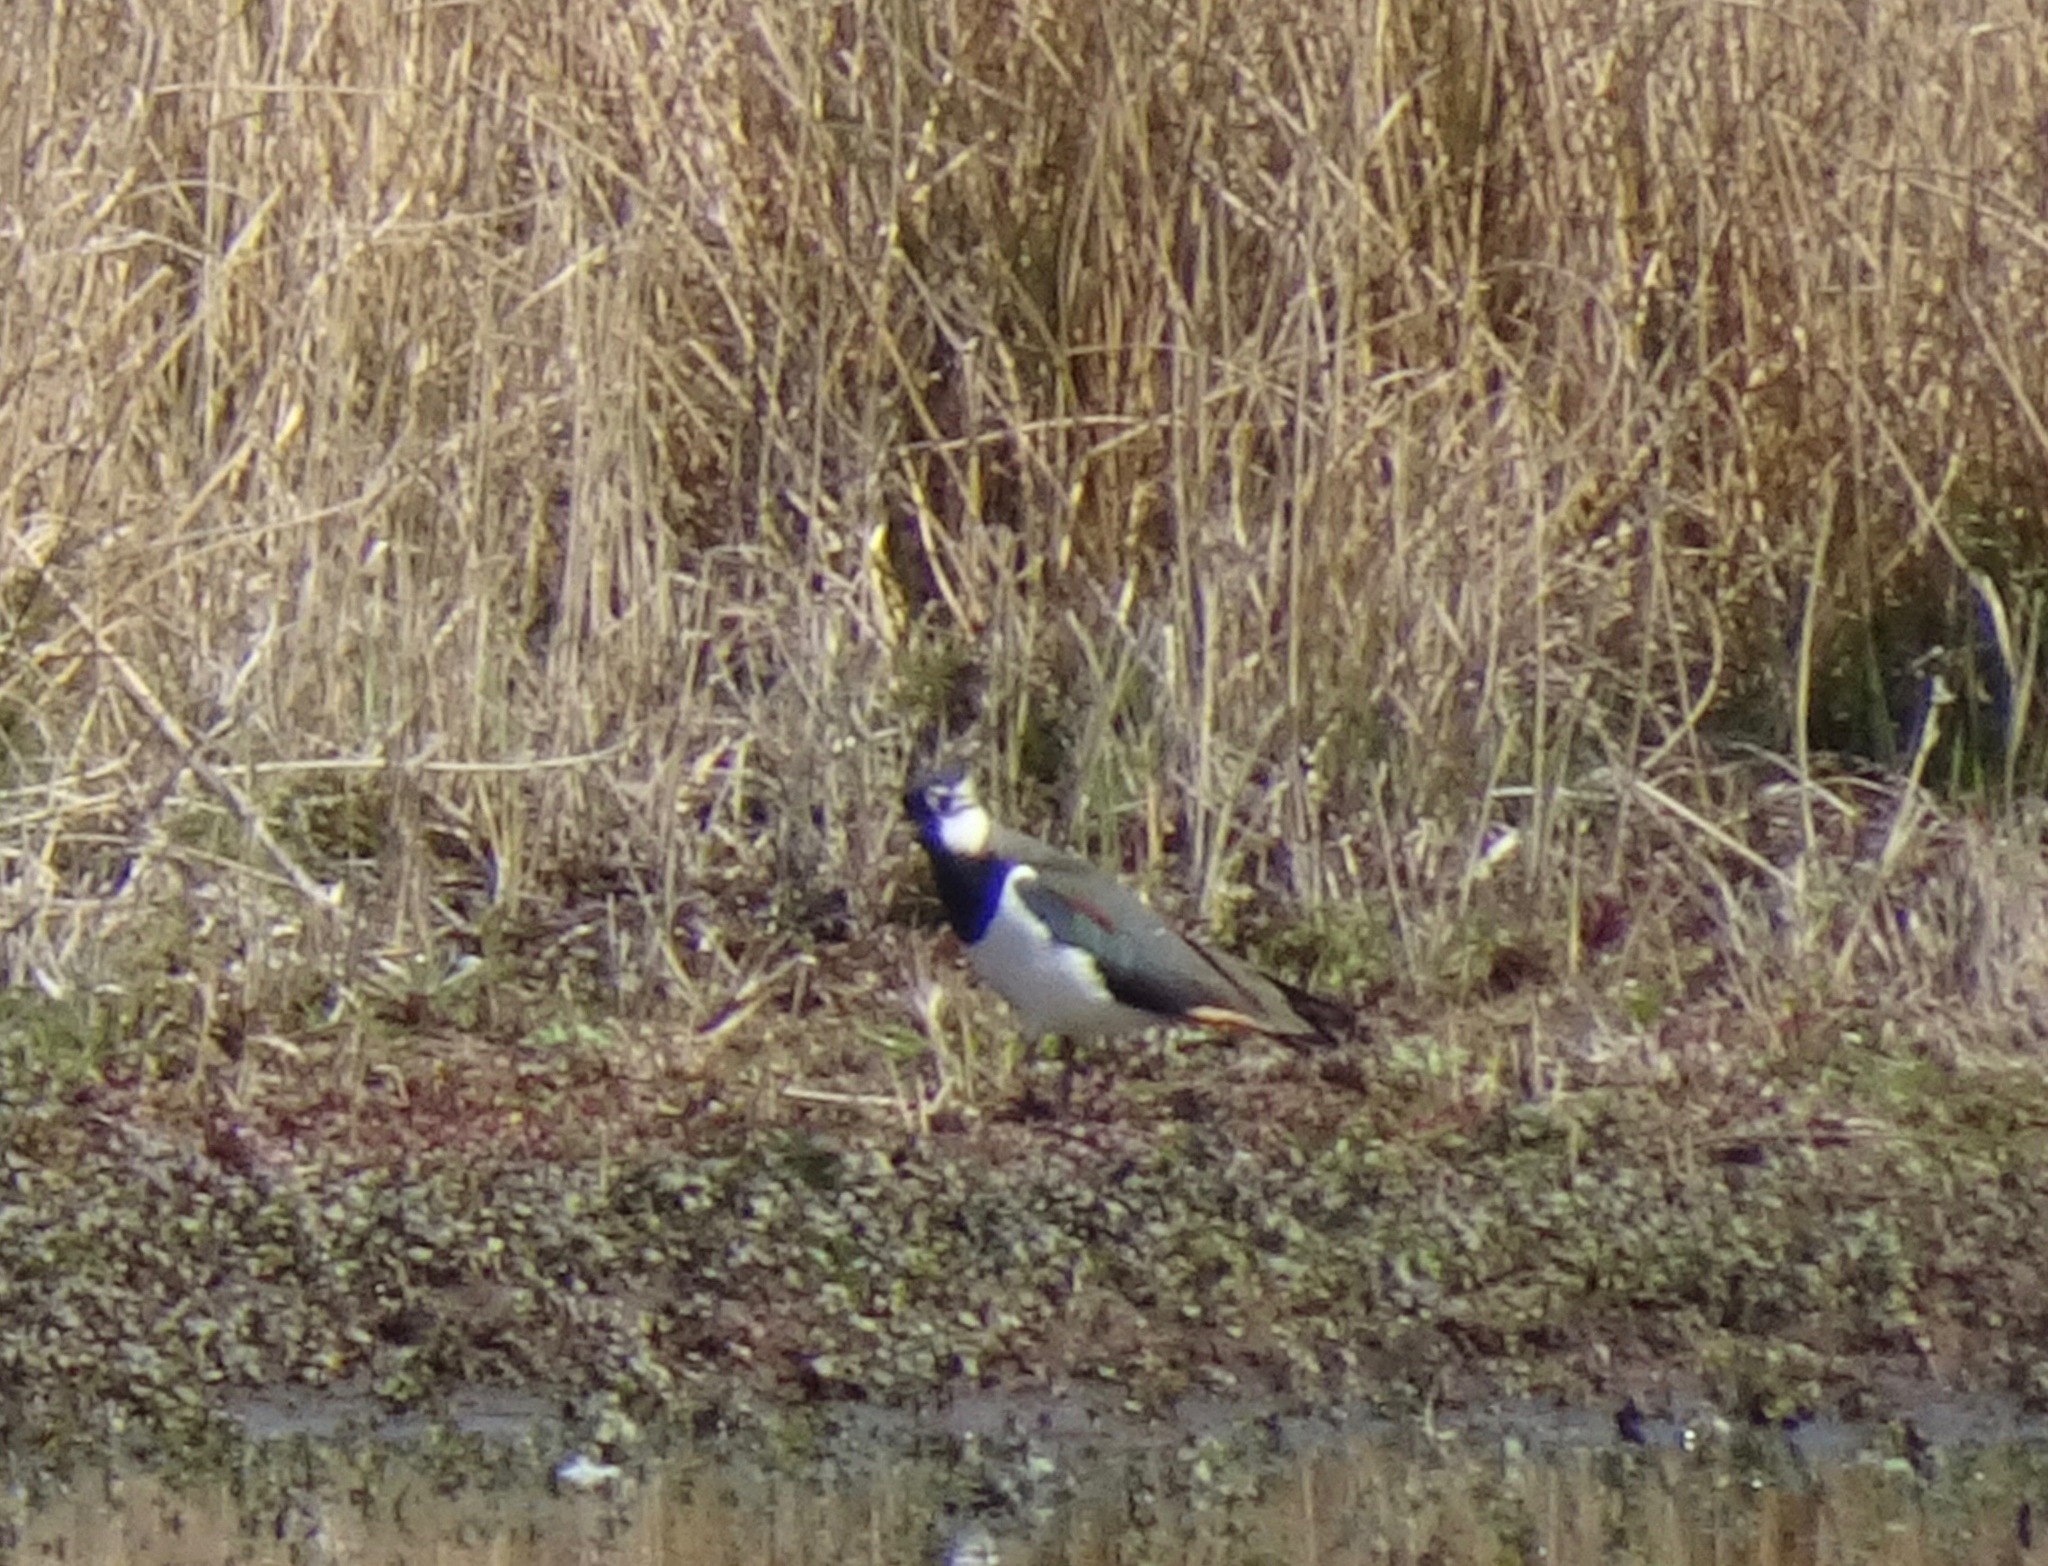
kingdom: Animalia
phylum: Chordata
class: Aves
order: Charadriiformes
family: Charadriidae
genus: Vanellus
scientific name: Vanellus vanellus
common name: Northern lapwing
